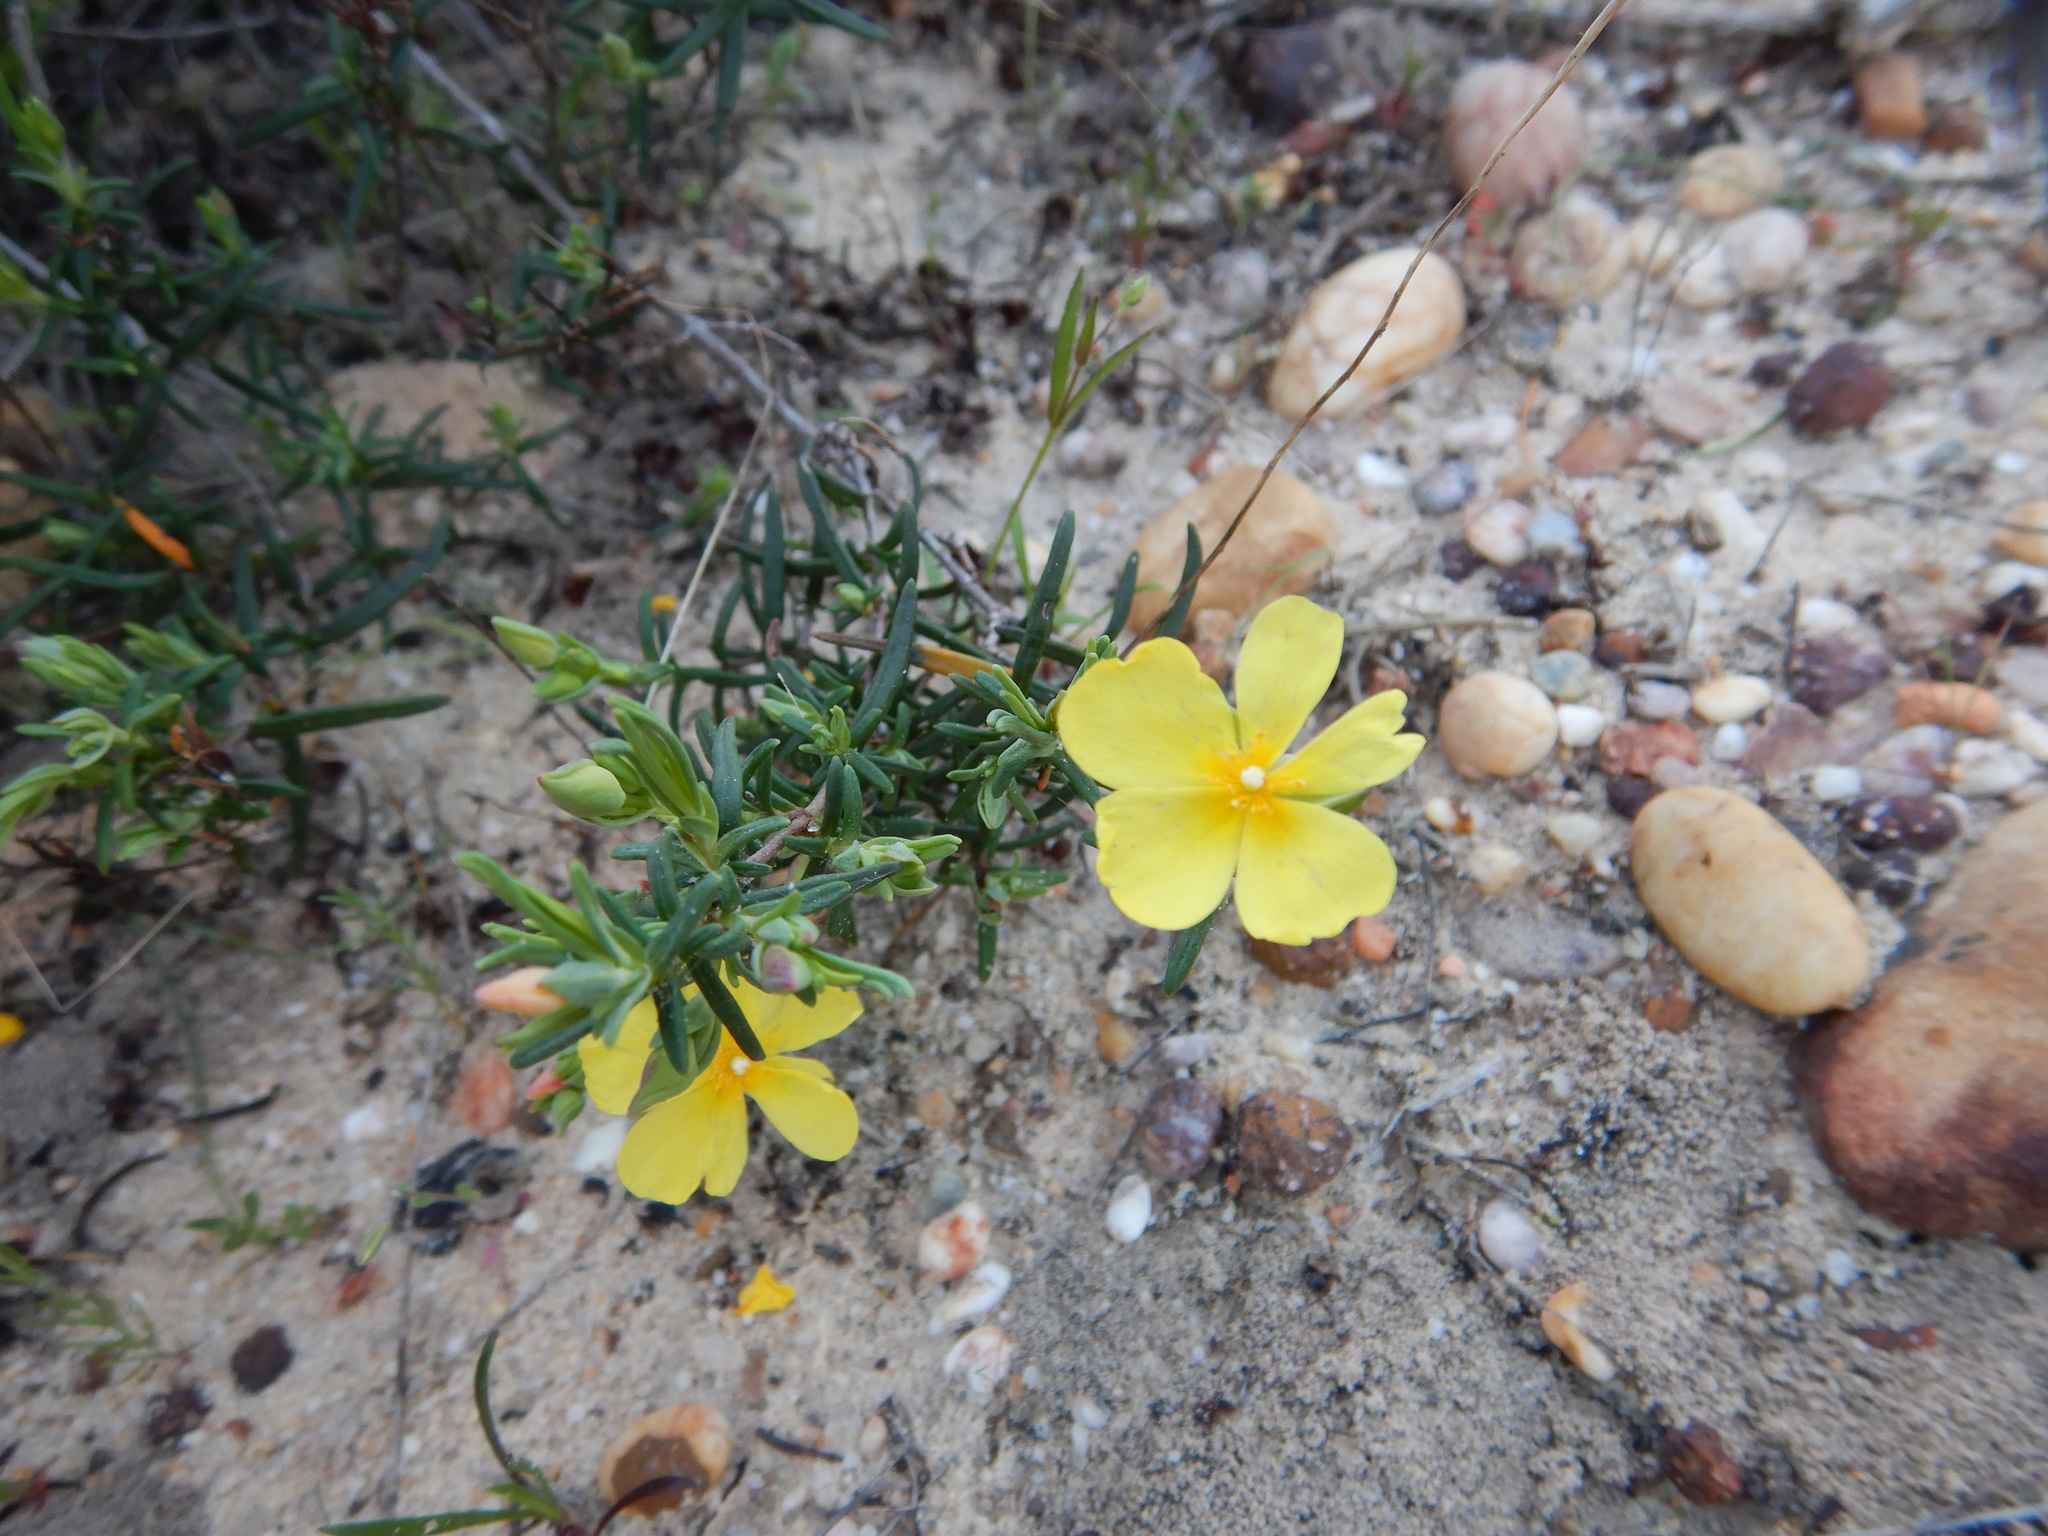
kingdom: Plantae
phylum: Tracheophyta
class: Magnoliopsida
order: Malvales
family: Cistaceae
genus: Halimium
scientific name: Halimium calycinum
